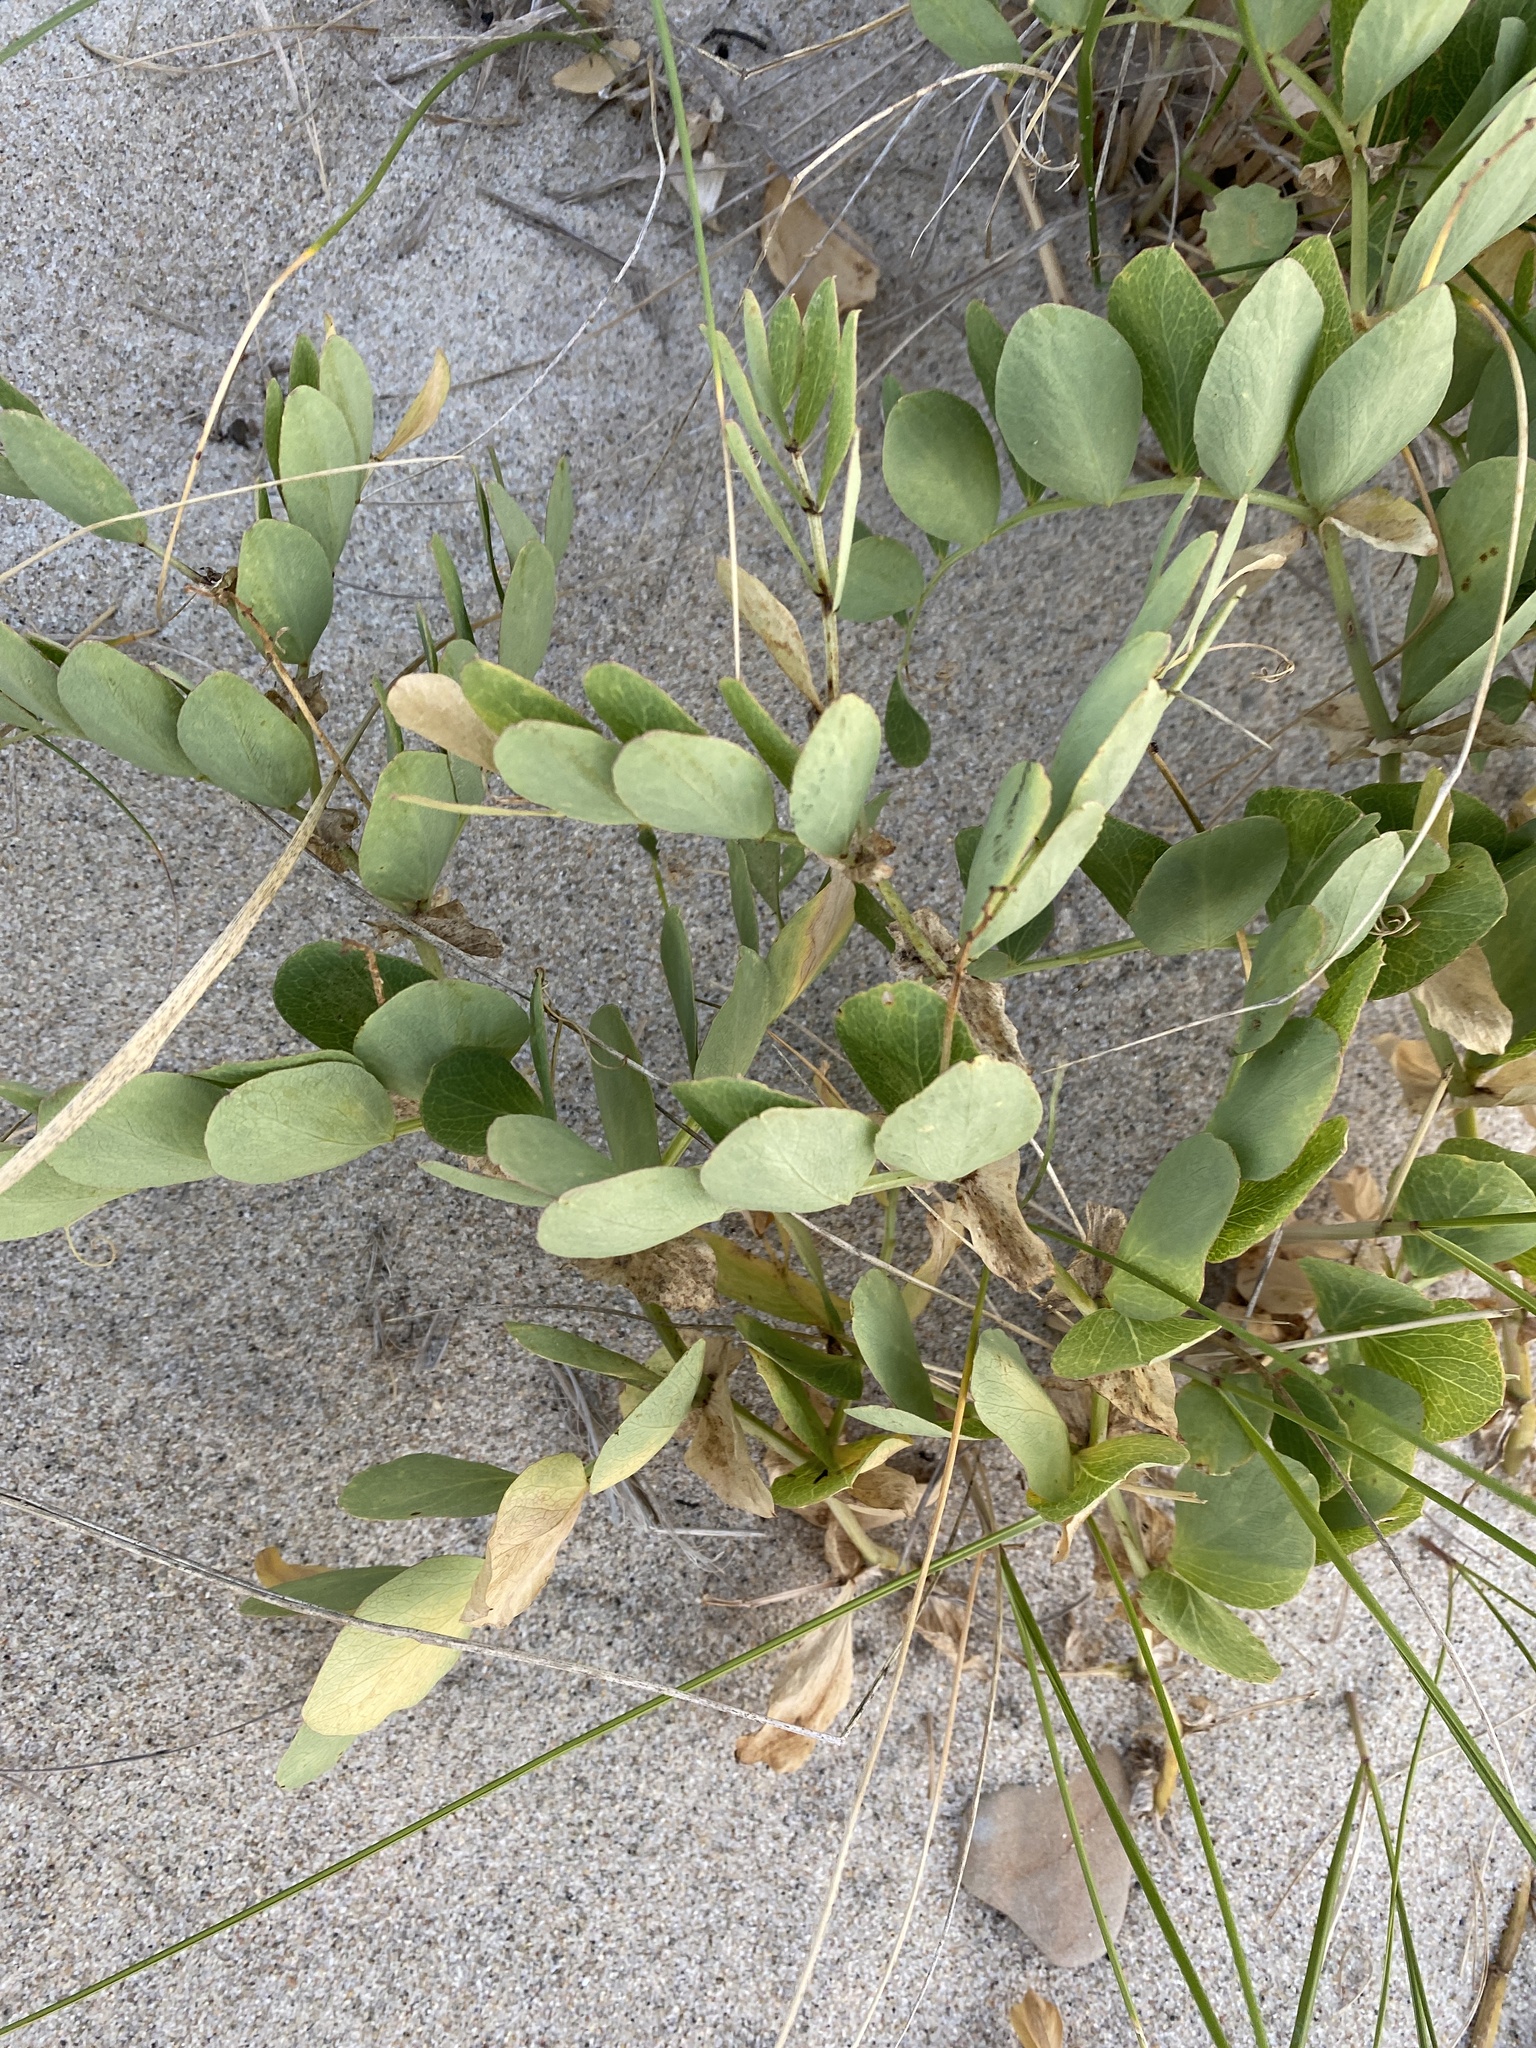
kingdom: Plantae
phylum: Tracheophyta
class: Magnoliopsida
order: Fabales
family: Fabaceae
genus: Lathyrus
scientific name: Lathyrus japonicus
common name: Sea pea
